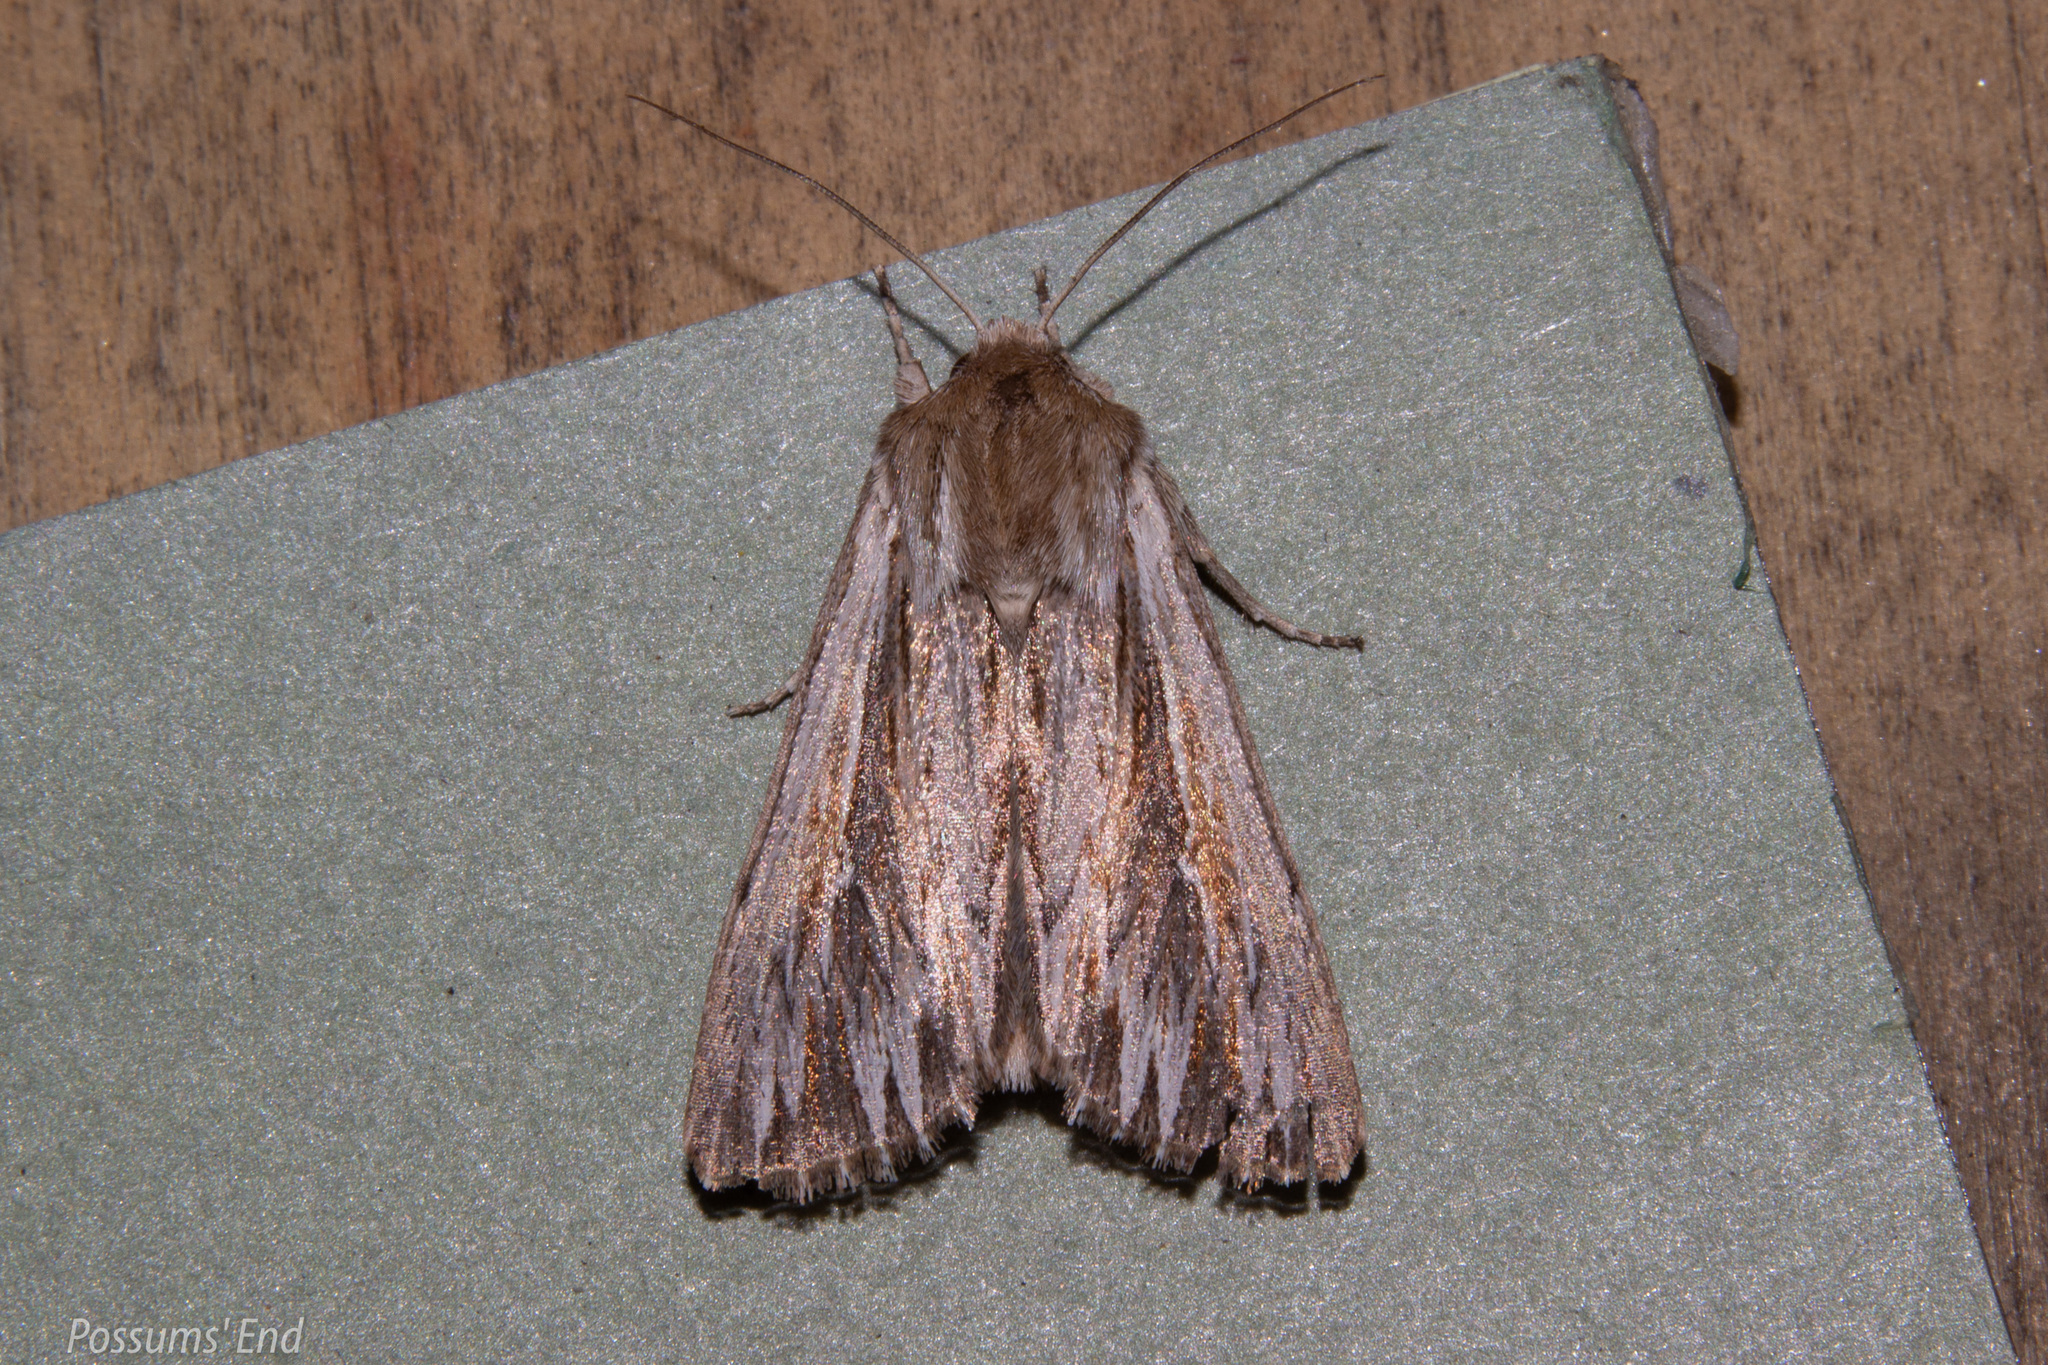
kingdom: Animalia
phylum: Arthropoda
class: Insecta
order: Lepidoptera
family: Noctuidae
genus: Persectania
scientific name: Persectania aversa
